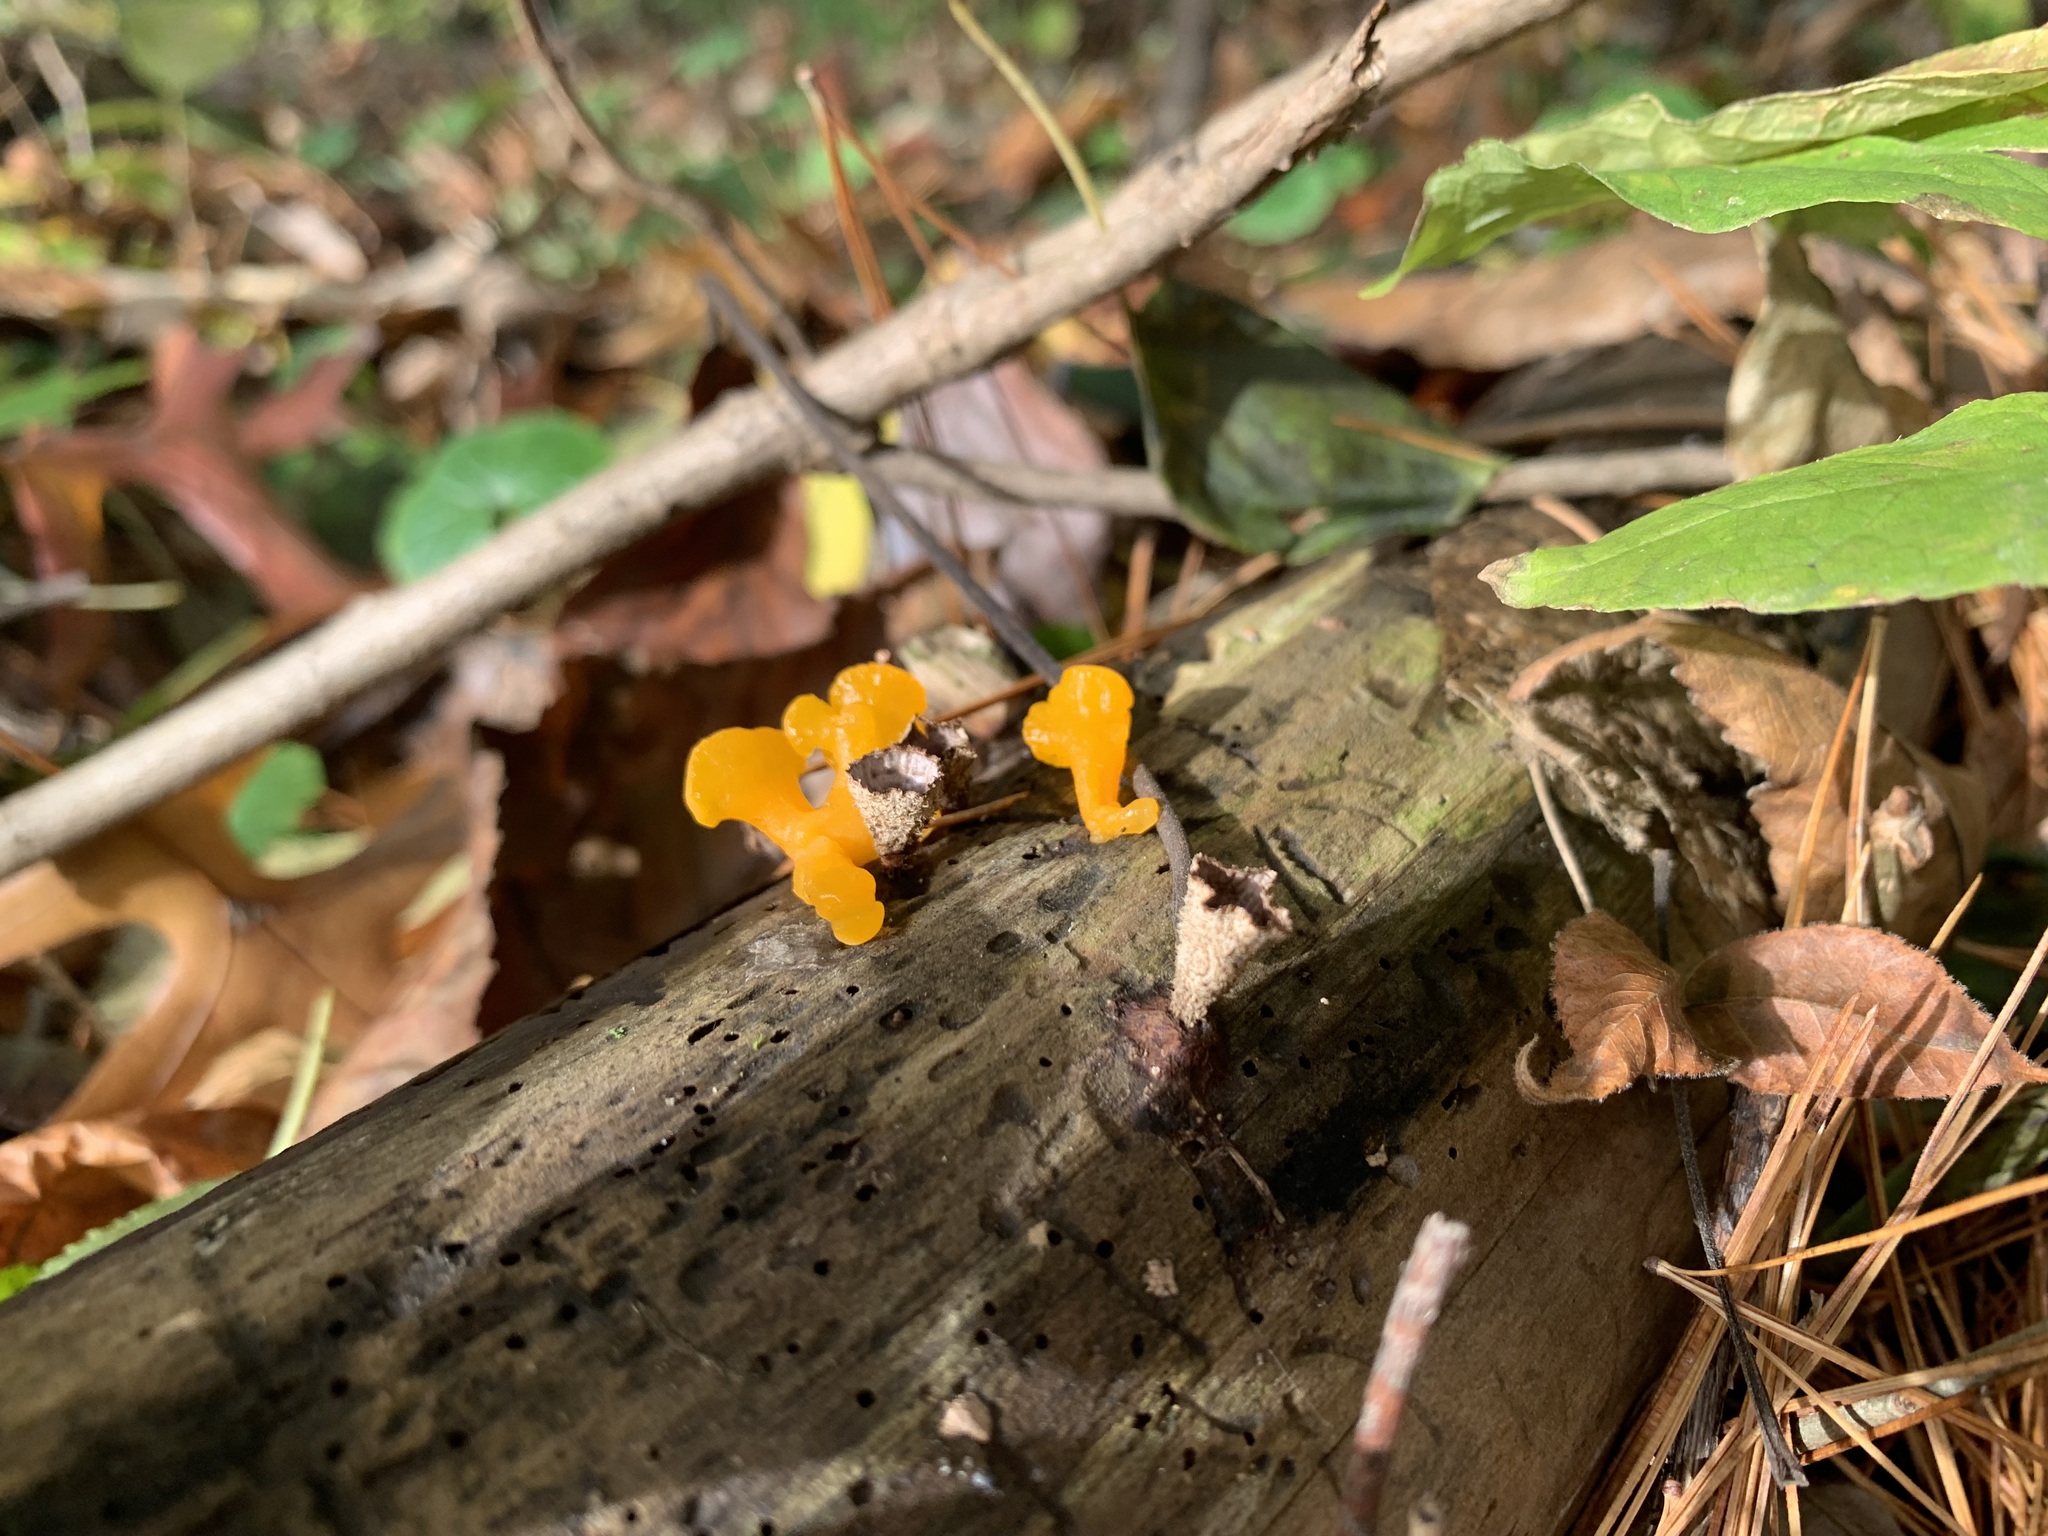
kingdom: Fungi
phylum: Basidiomycota
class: Dacrymycetes
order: Dacrymycetales
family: Dacrymycetaceae
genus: Dacrymyces
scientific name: Dacrymyces spathularius
